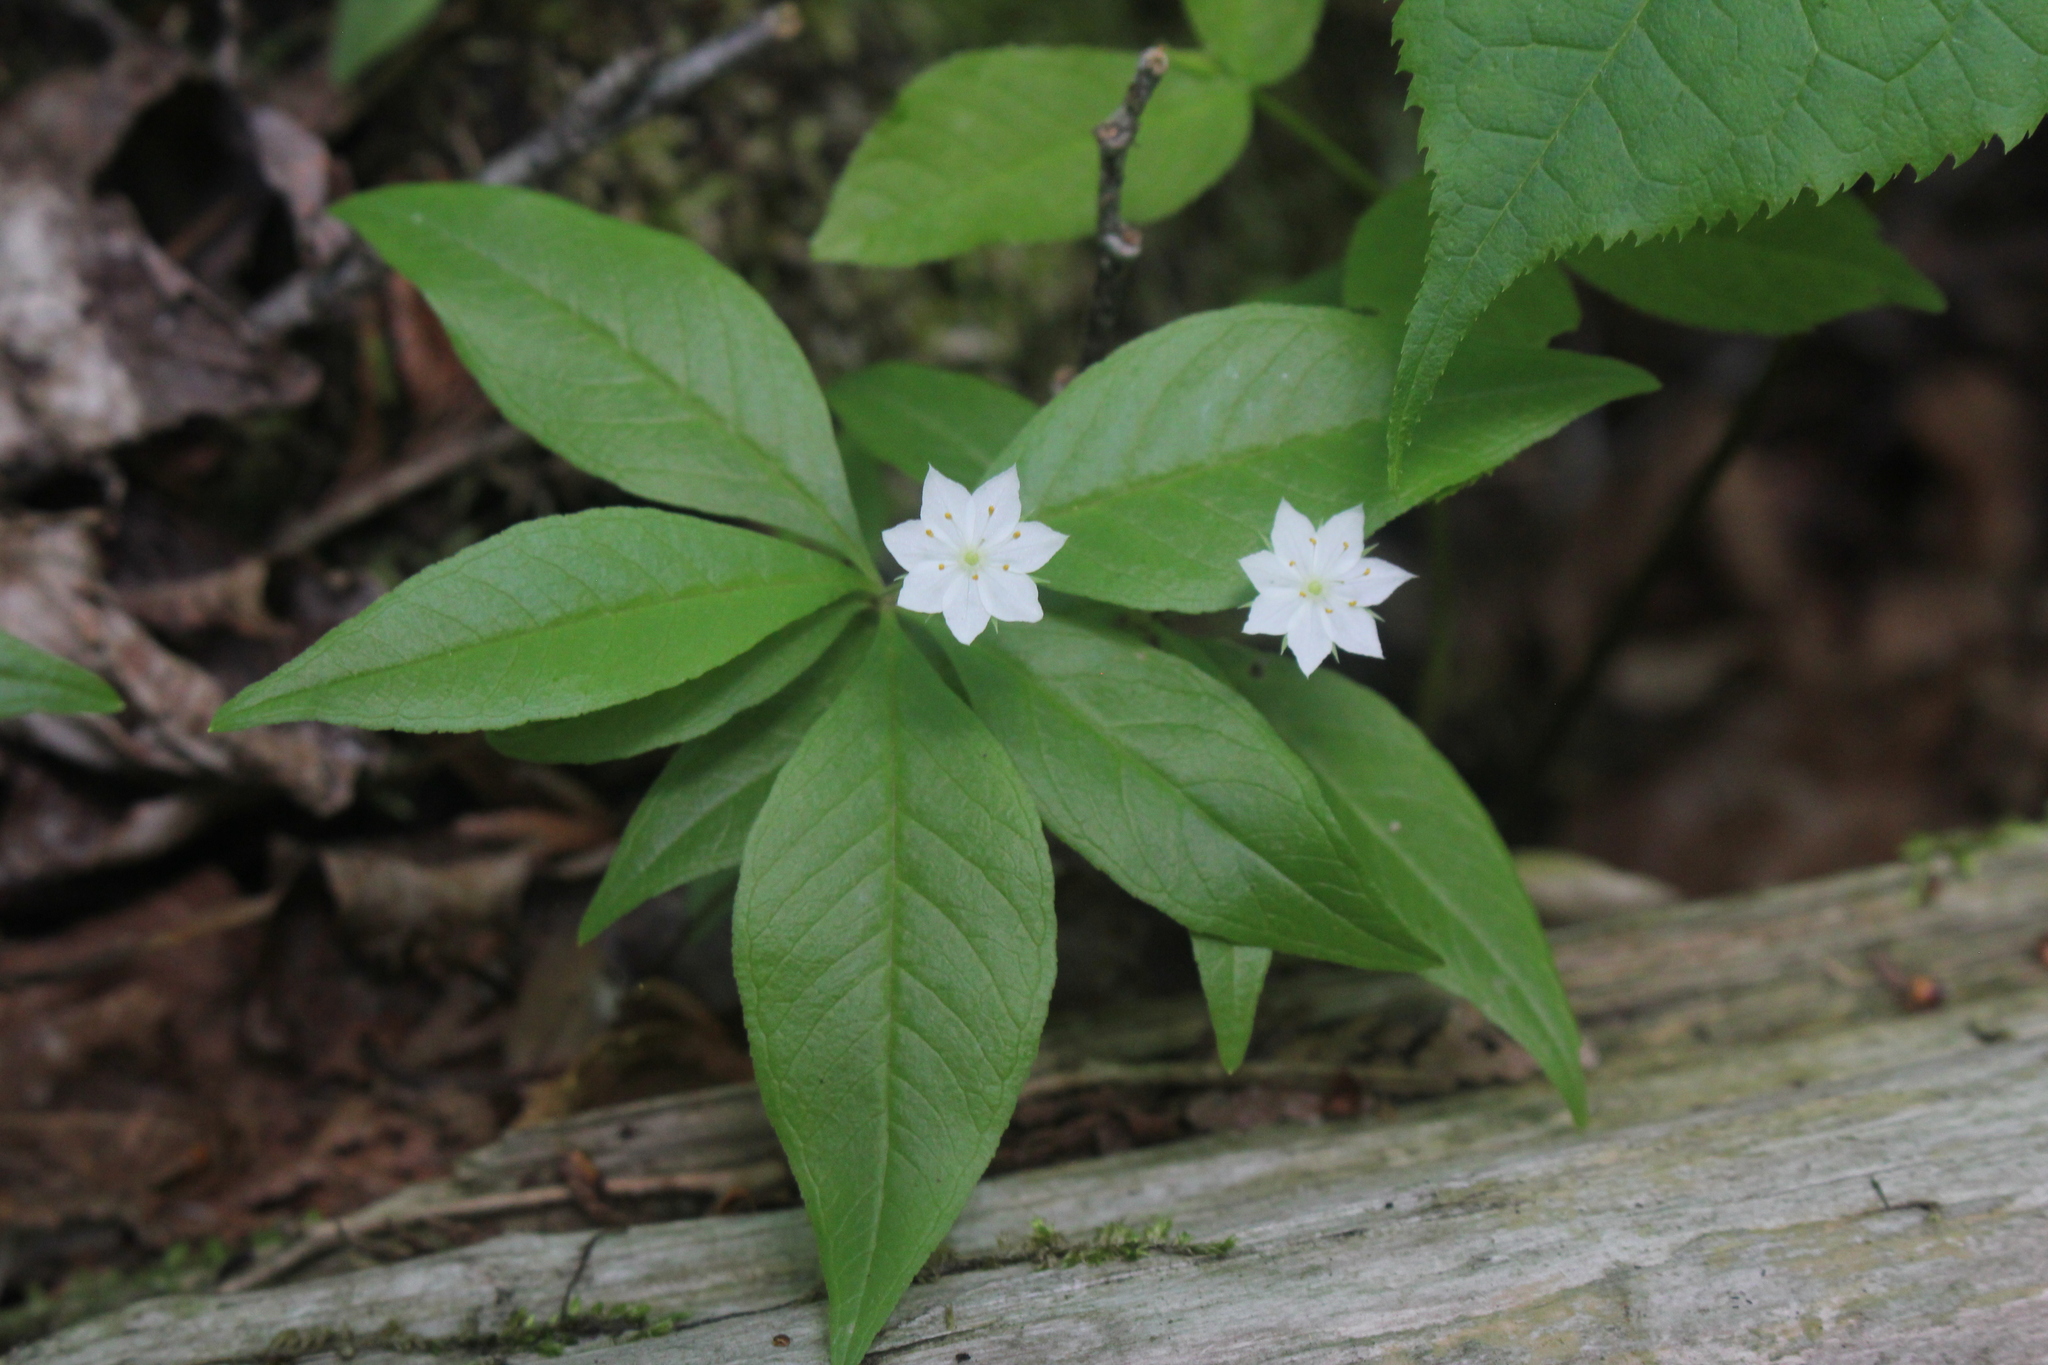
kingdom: Plantae
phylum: Tracheophyta
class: Magnoliopsida
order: Ericales
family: Primulaceae
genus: Lysimachia
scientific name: Lysimachia borealis
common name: American starflower
